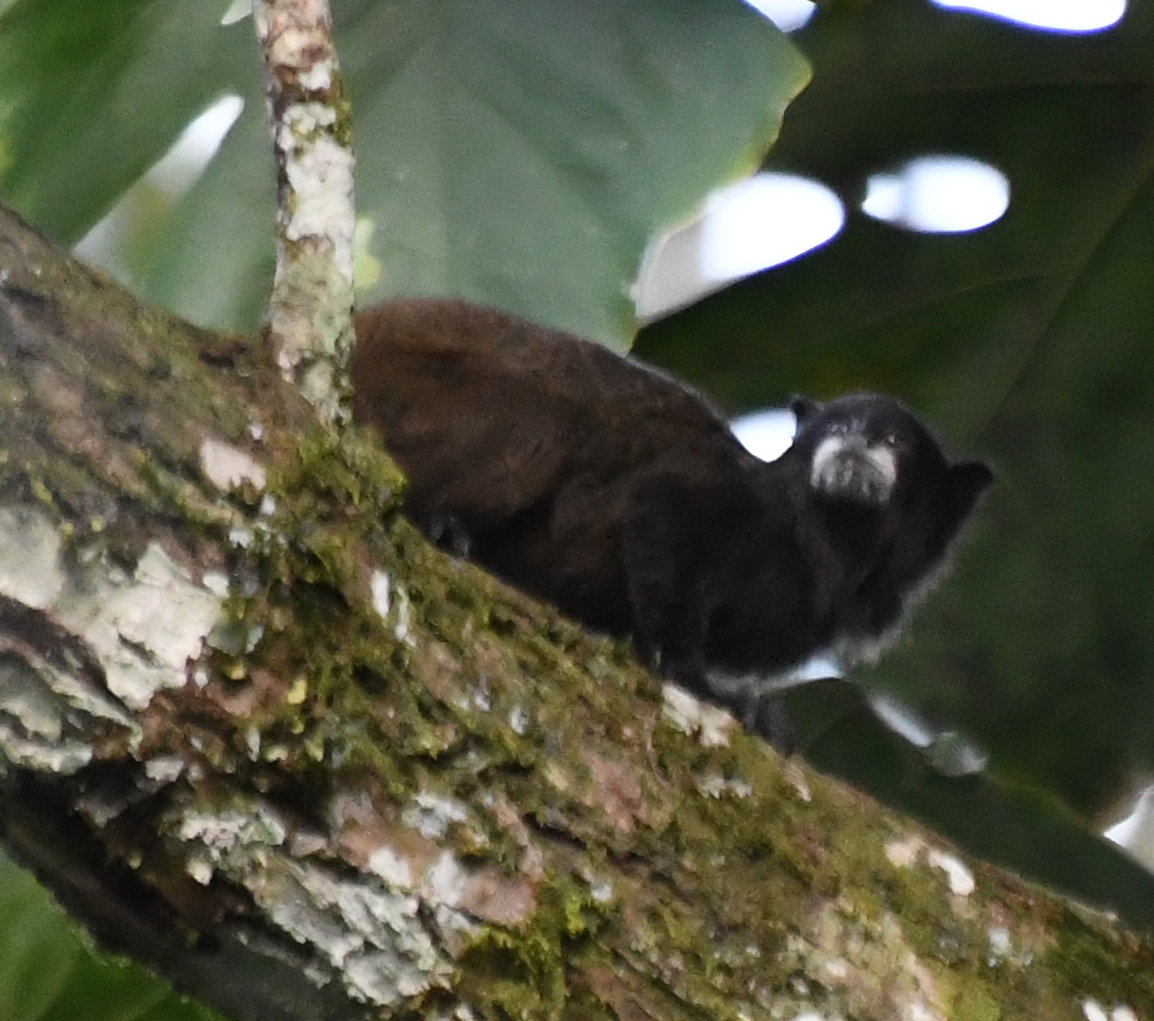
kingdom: Animalia
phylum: Chordata
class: Mammalia
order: Primates
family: Callitrichidae
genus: Leontocebus
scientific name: Leontocebus nigricollis
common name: Black-mantled tamarin
